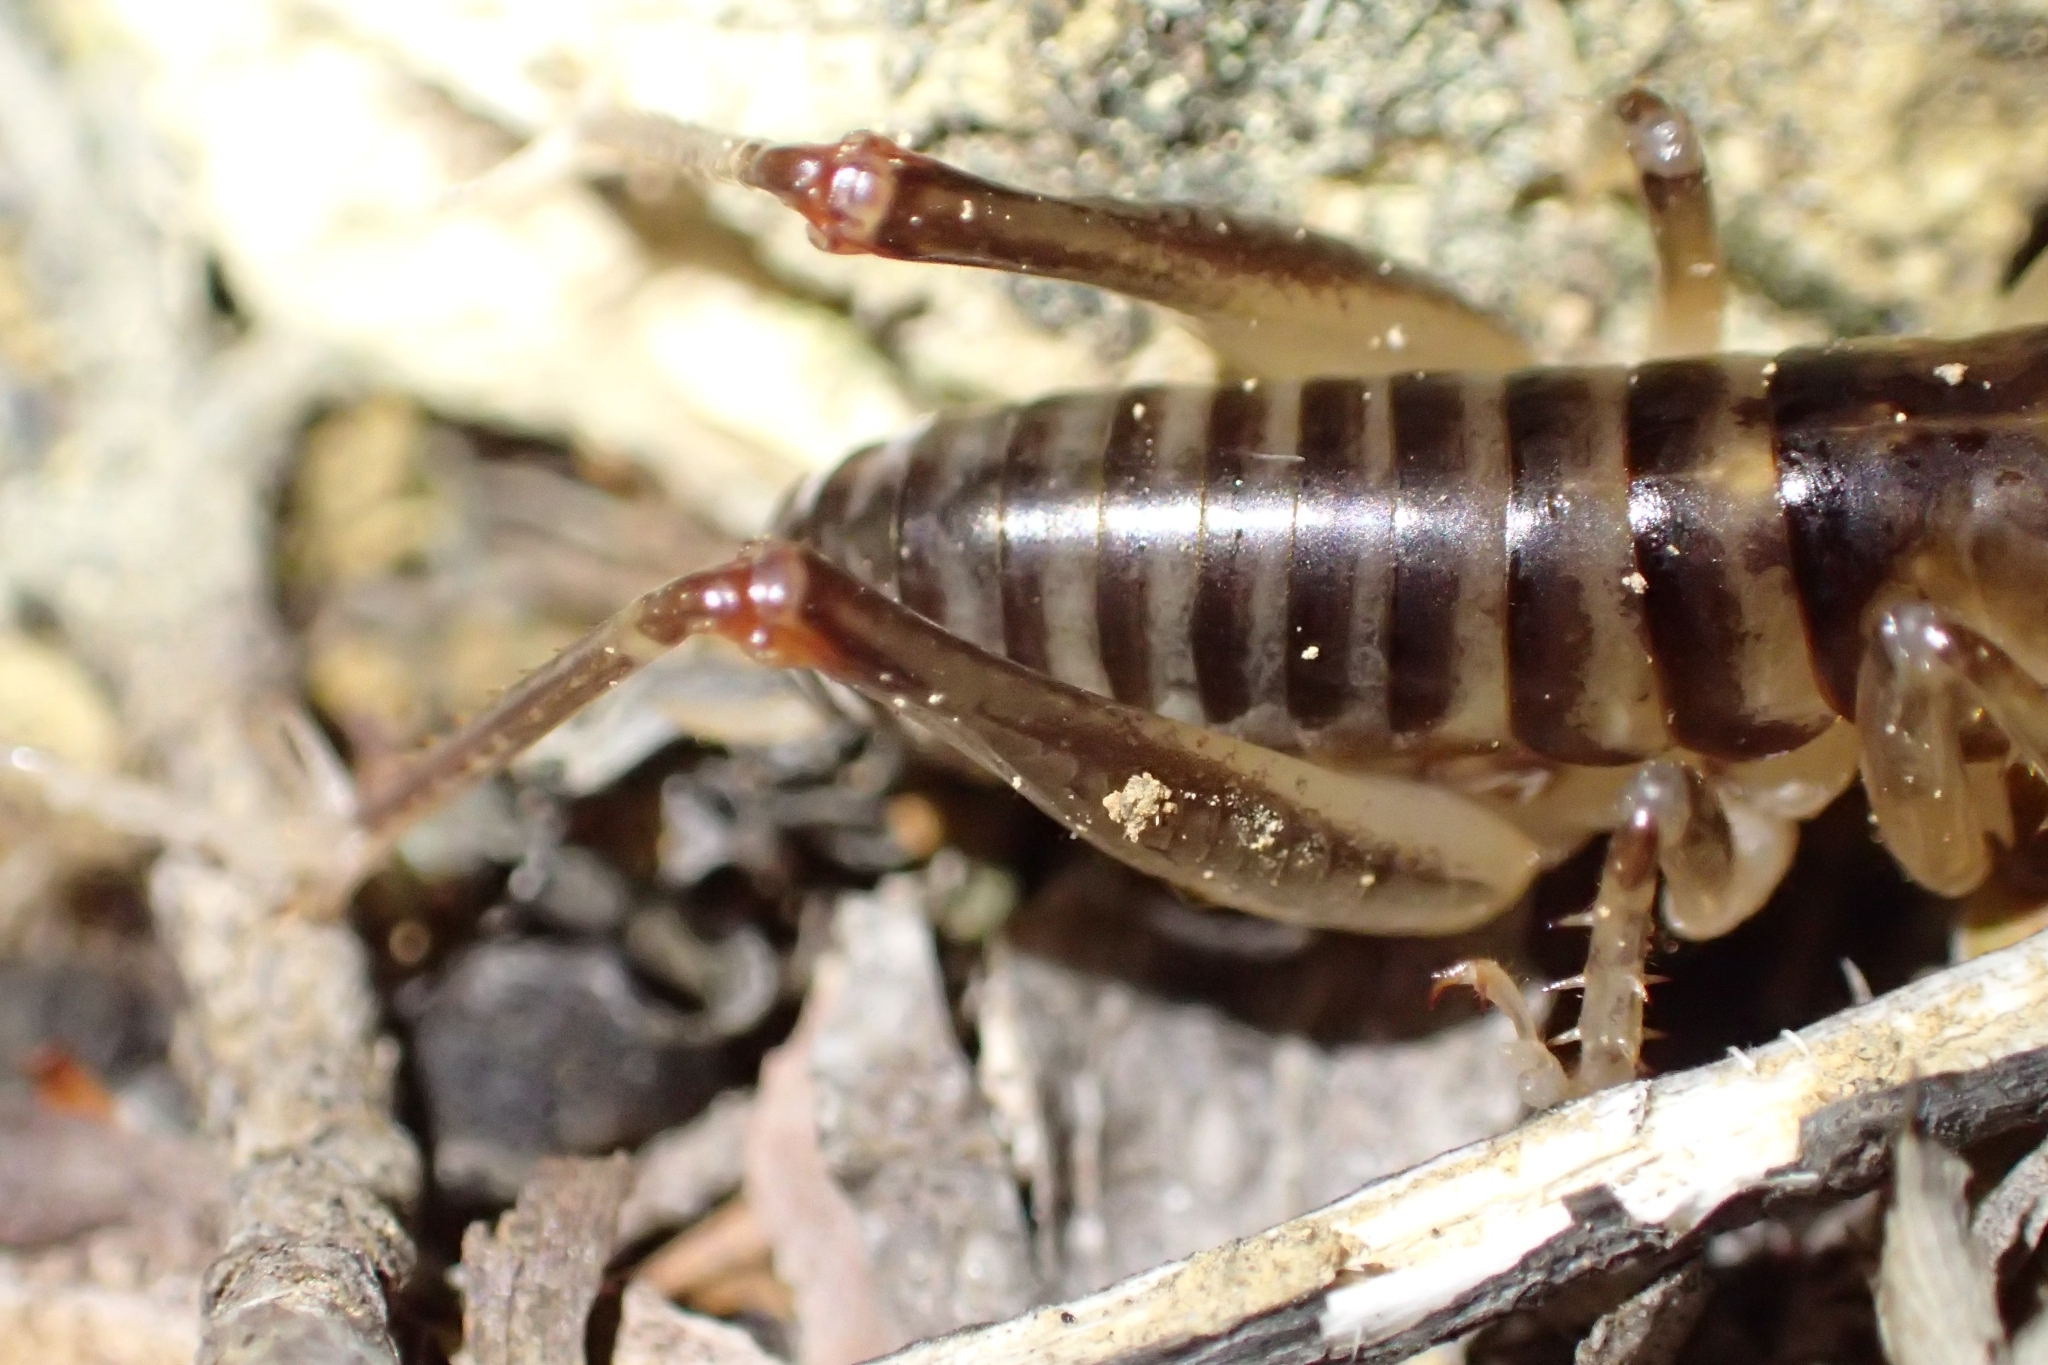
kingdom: Animalia
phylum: Arthropoda
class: Insecta
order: Orthoptera
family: Anostostomatidae
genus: Hemiandrus
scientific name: Hemiandrus pallitarsis
